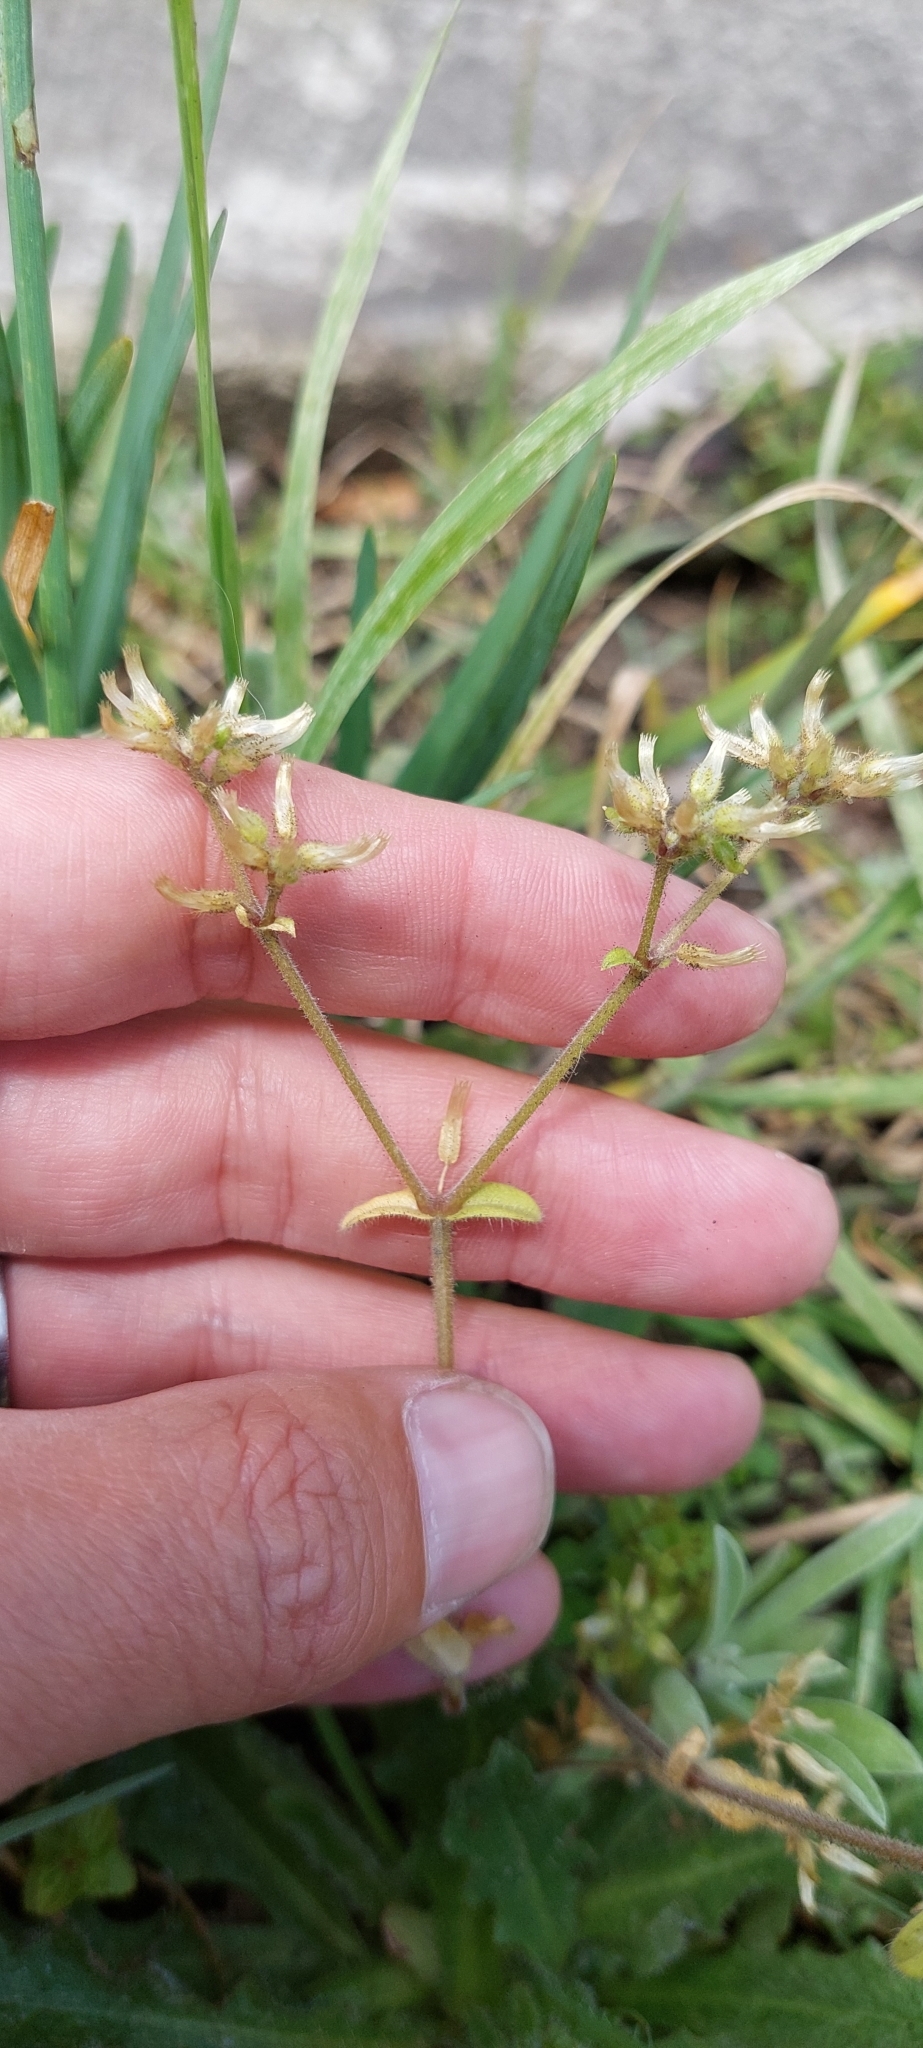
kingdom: Plantae
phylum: Tracheophyta
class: Magnoliopsida
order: Caryophyllales
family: Caryophyllaceae
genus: Cerastium
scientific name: Cerastium glomeratum
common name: Sticky chickweed
